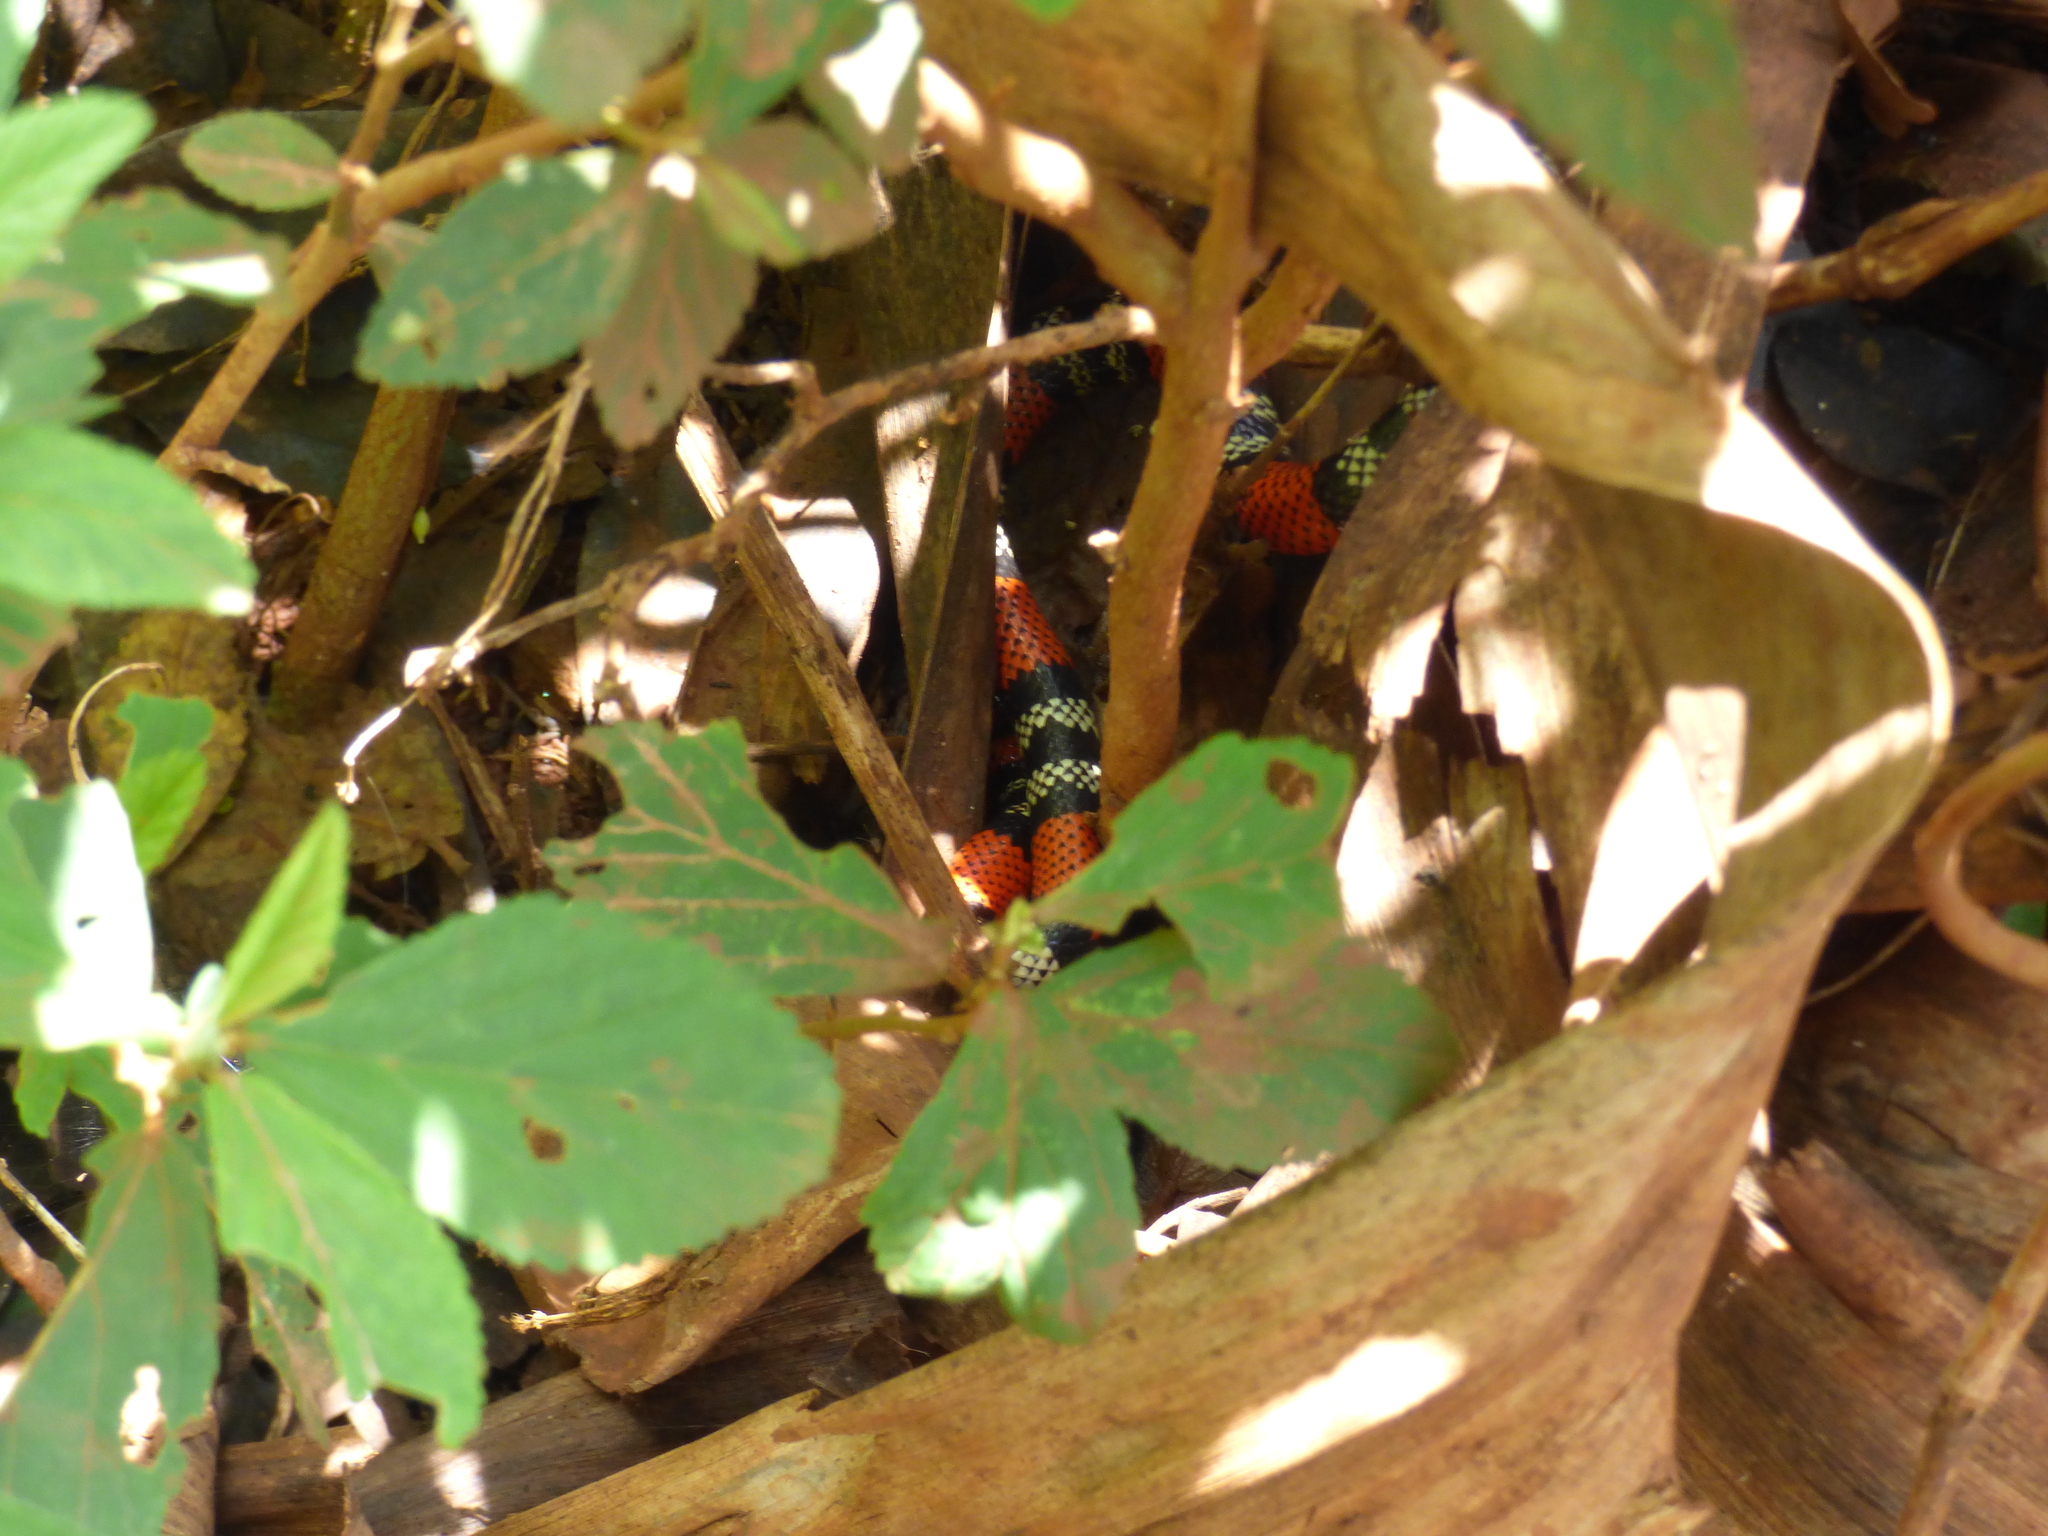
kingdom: Animalia
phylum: Chordata
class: Squamata
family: Elapidae
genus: Micrurus
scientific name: Micrurus altirostris
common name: Uruguayan coral snake
